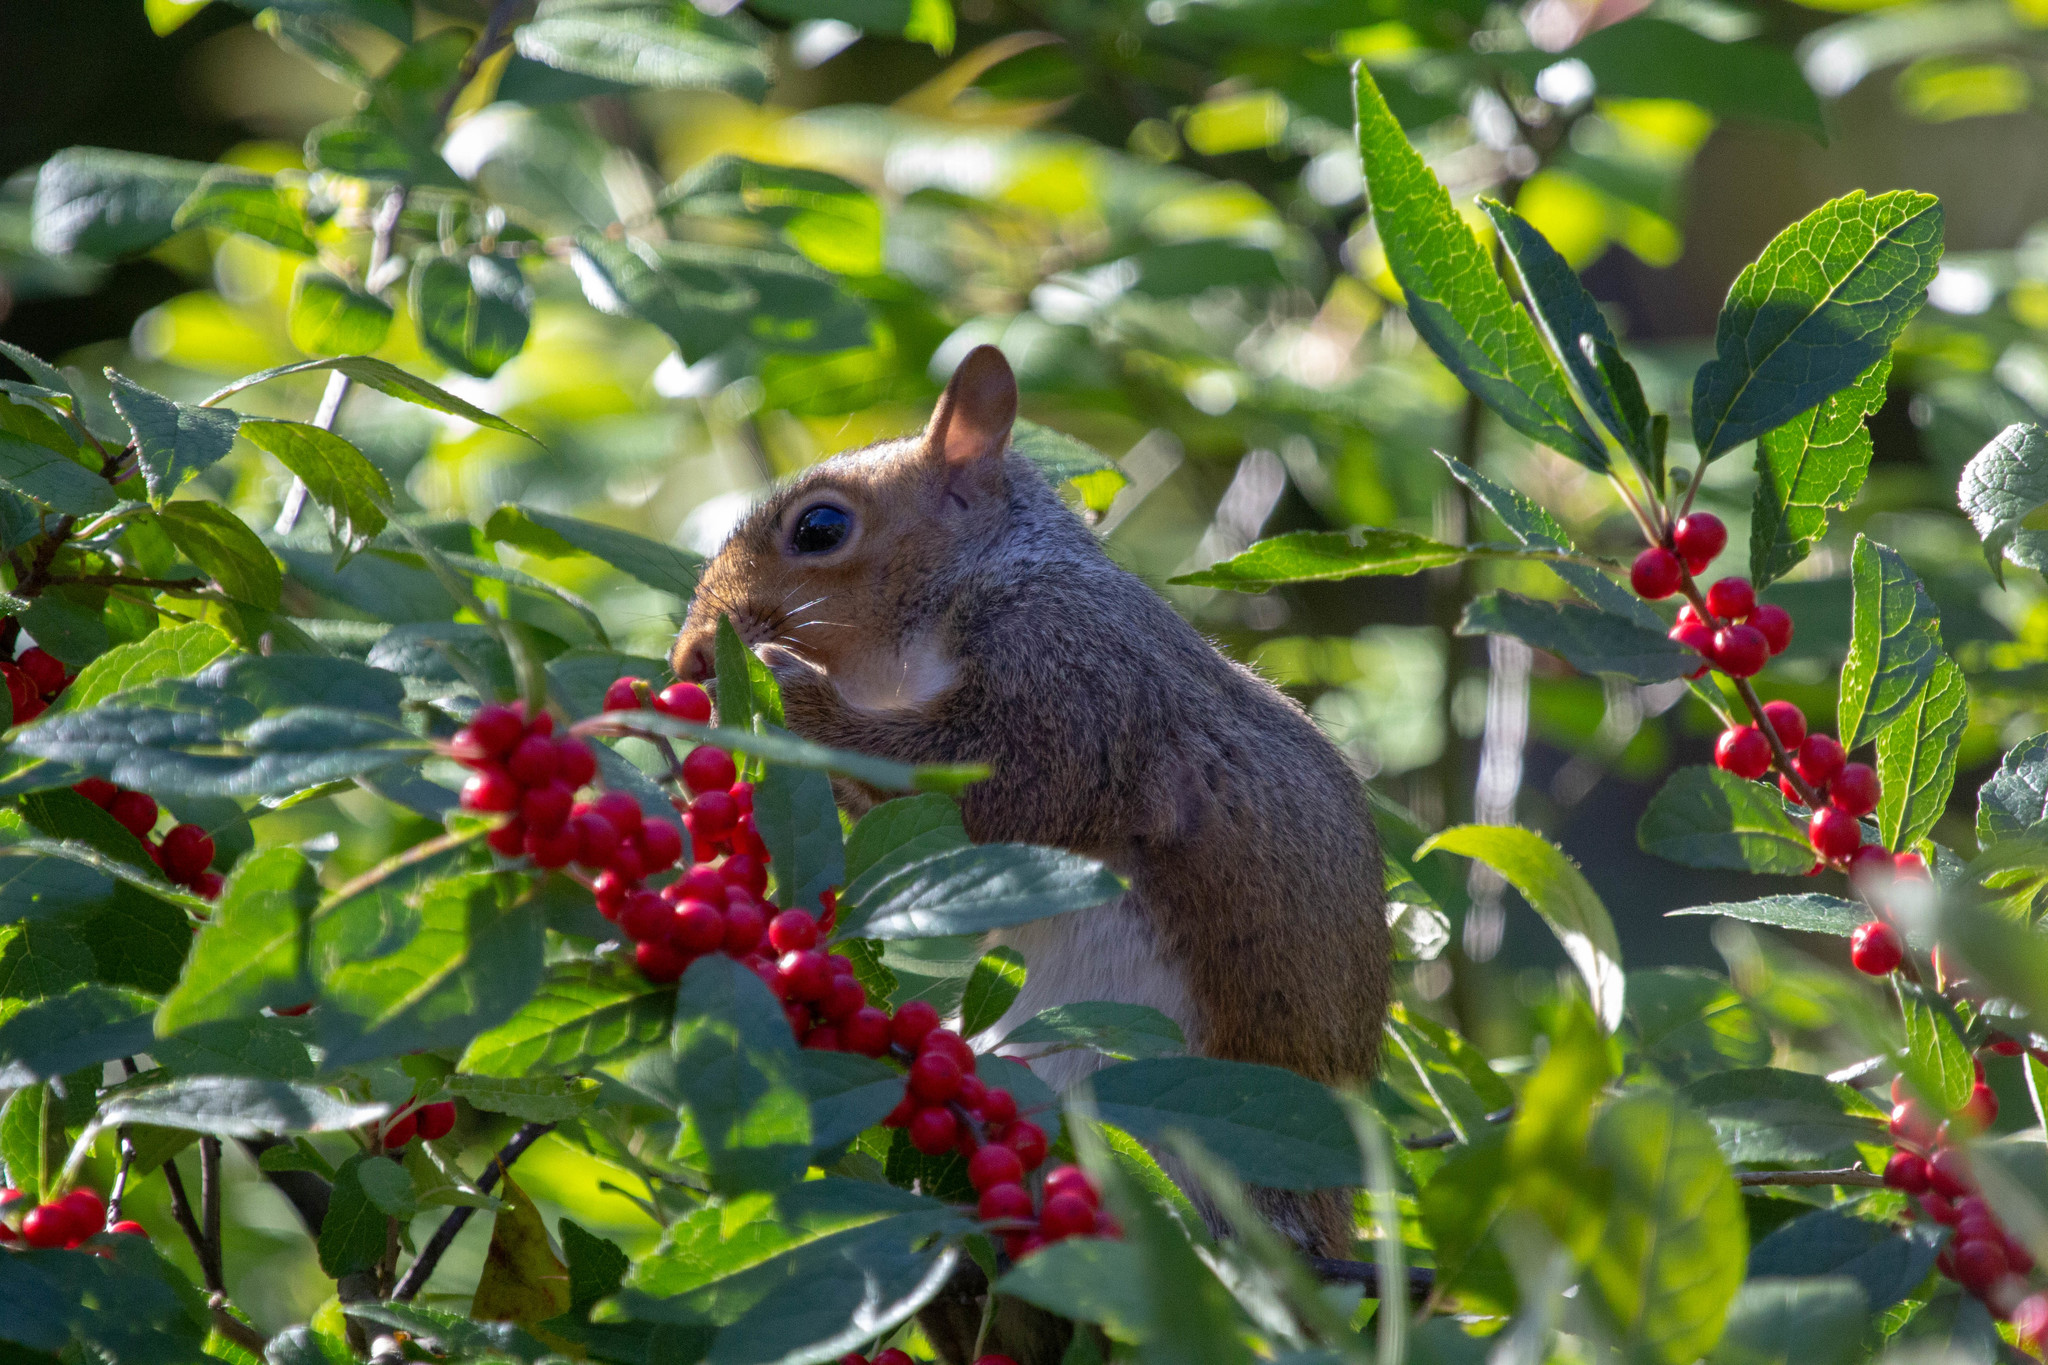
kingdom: Animalia
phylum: Chordata
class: Mammalia
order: Rodentia
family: Sciuridae
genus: Sciurus
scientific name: Sciurus carolinensis
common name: Eastern gray squirrel
